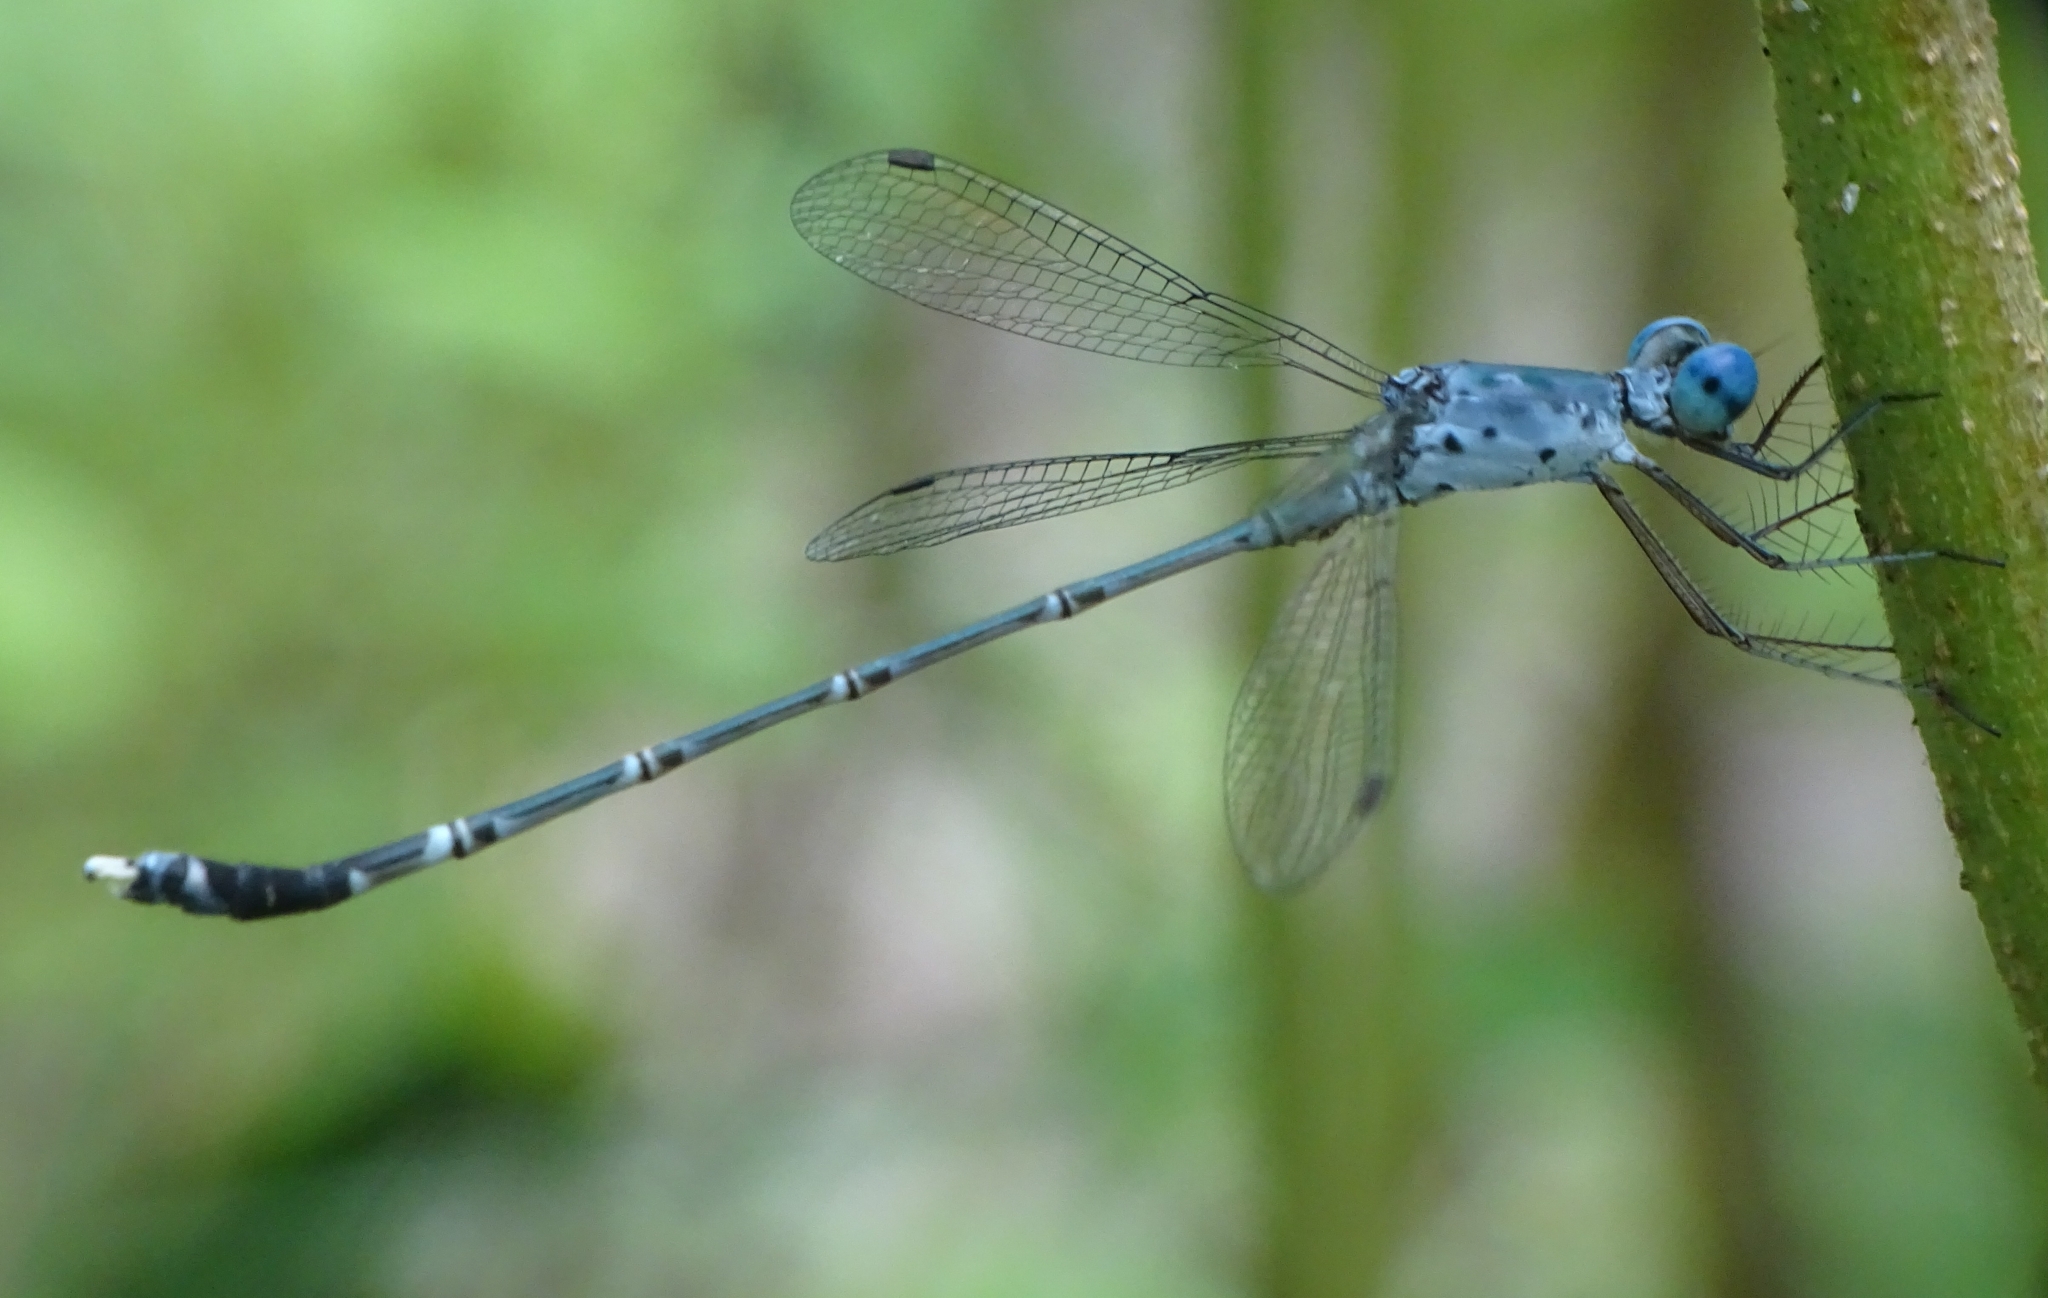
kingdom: Animalia
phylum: Arthropoda
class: Insecta
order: Odonata
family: Lestidae
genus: Lestes
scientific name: Lestes praemorsus
